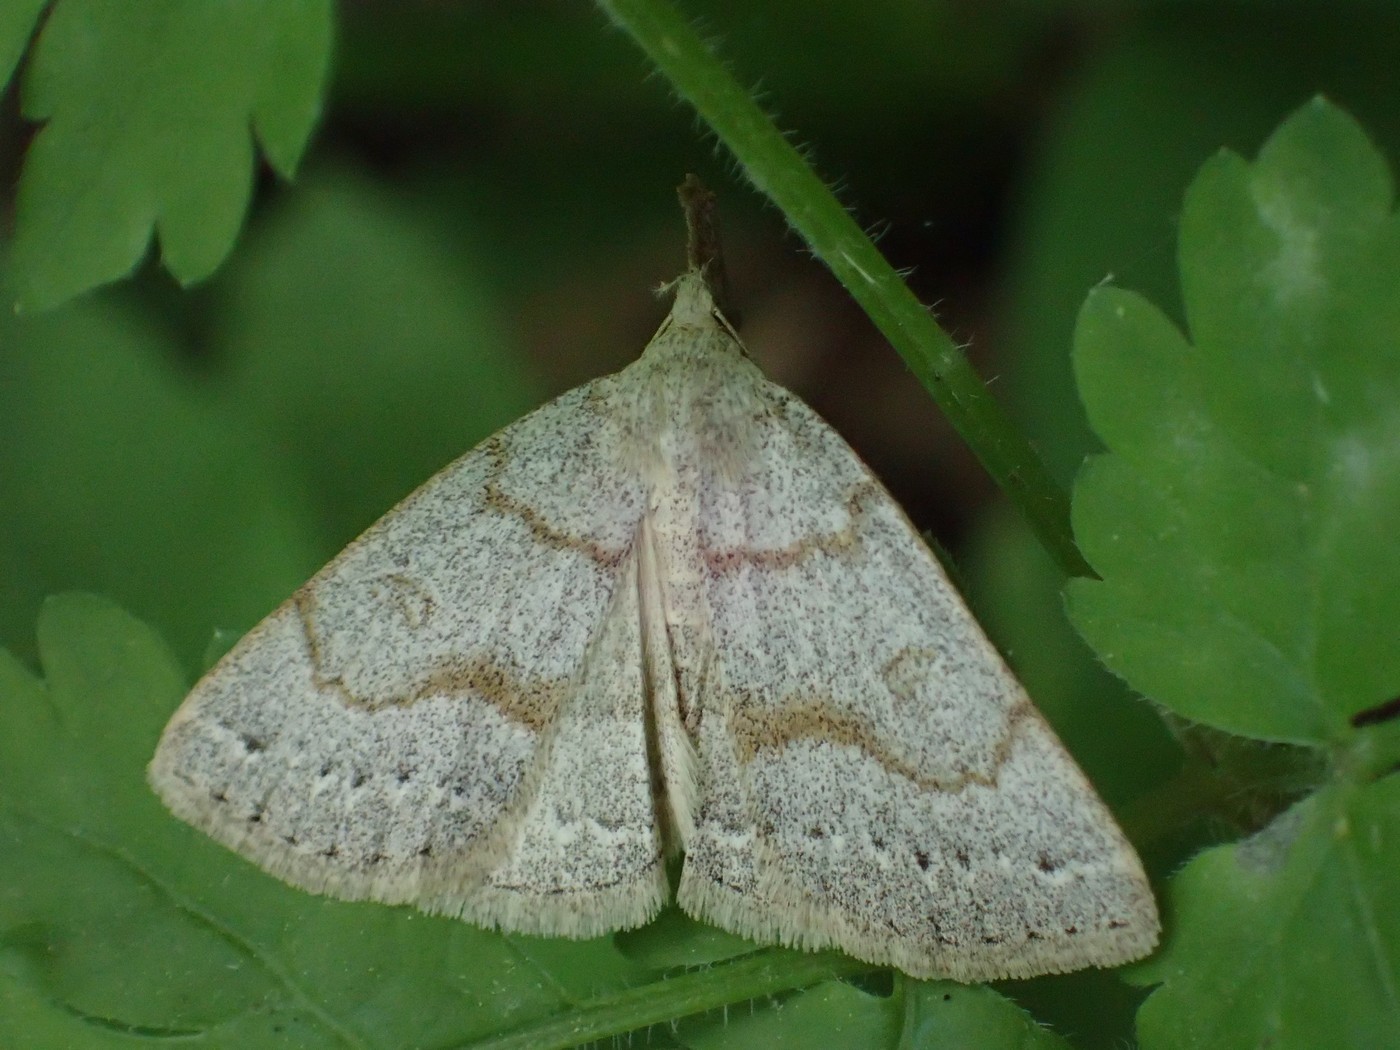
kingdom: Animalia
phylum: Arthropoda
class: Insecta
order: Lepidoptera
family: Erebidae
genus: Macrochilo
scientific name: Macrochilo morbidalis
